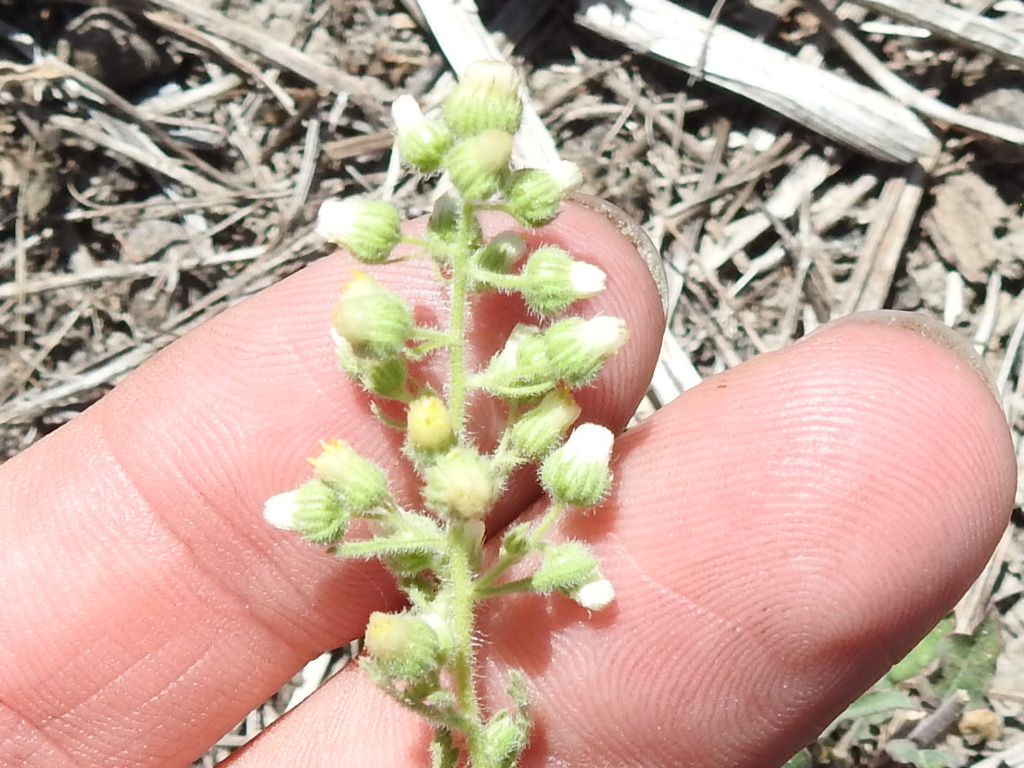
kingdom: Plantae
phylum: Tracheophyta
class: Magnoliopsida
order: Asterales
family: Asteraceae
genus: Laennecia
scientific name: Laennecia coulteri
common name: Coulter's woolwort
